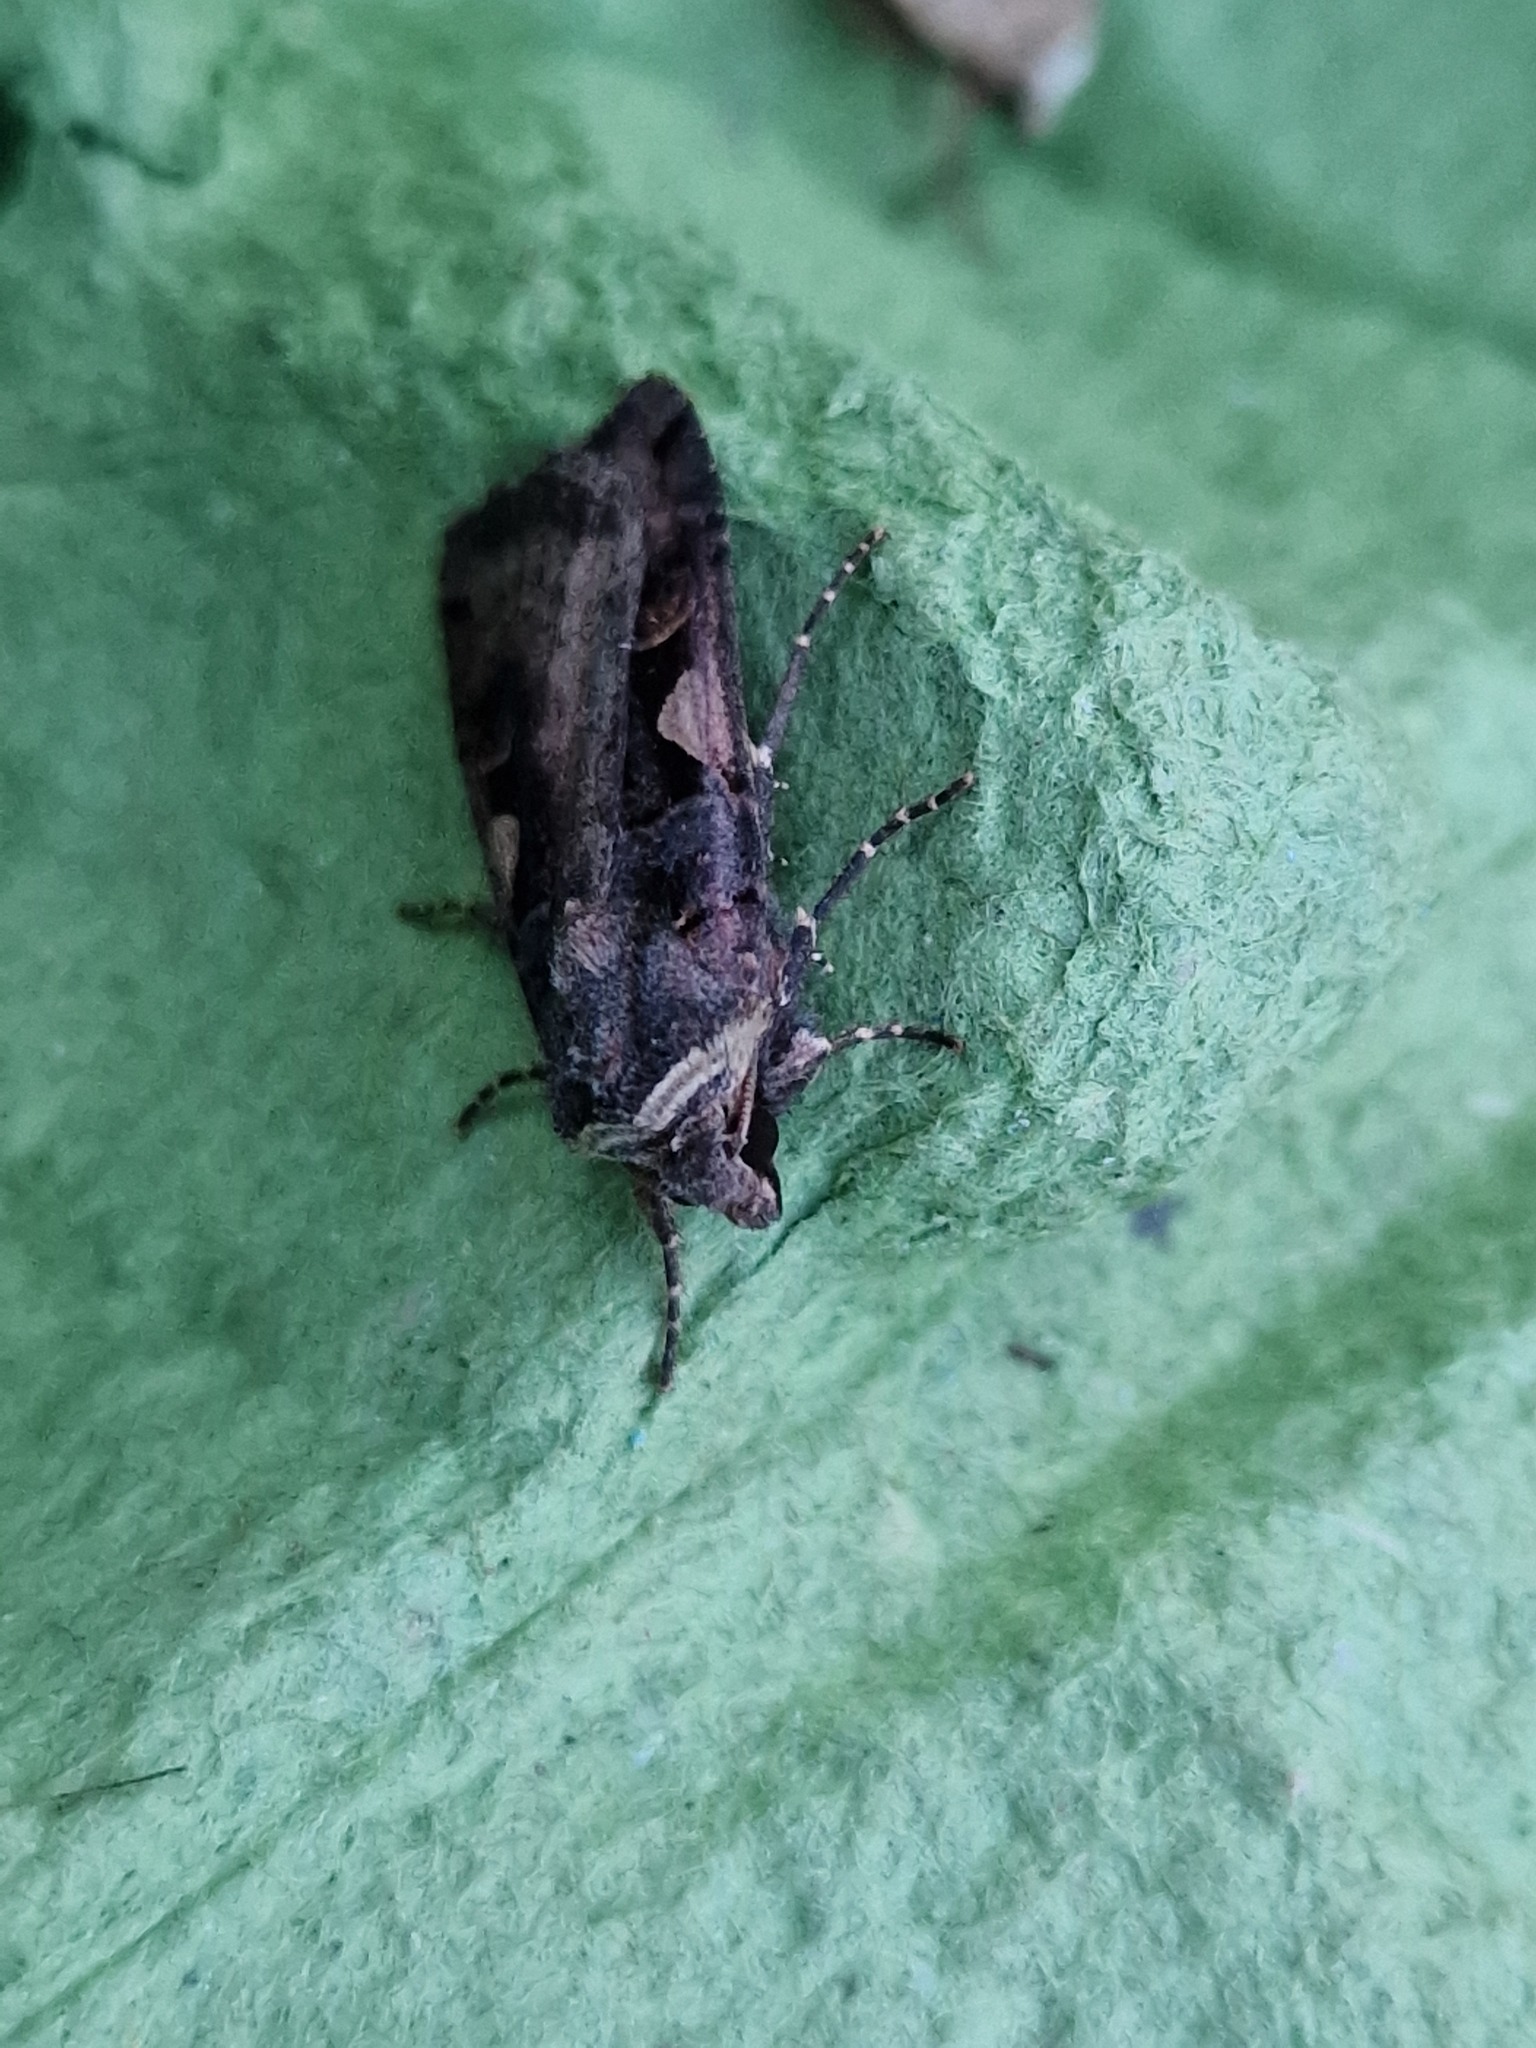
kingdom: Animalia
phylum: Arthropoda
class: Insecta
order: Lepidoptera
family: Noctuidae
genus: Xestia
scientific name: Xestia c-nigrum
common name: Setaceous hebrew character
